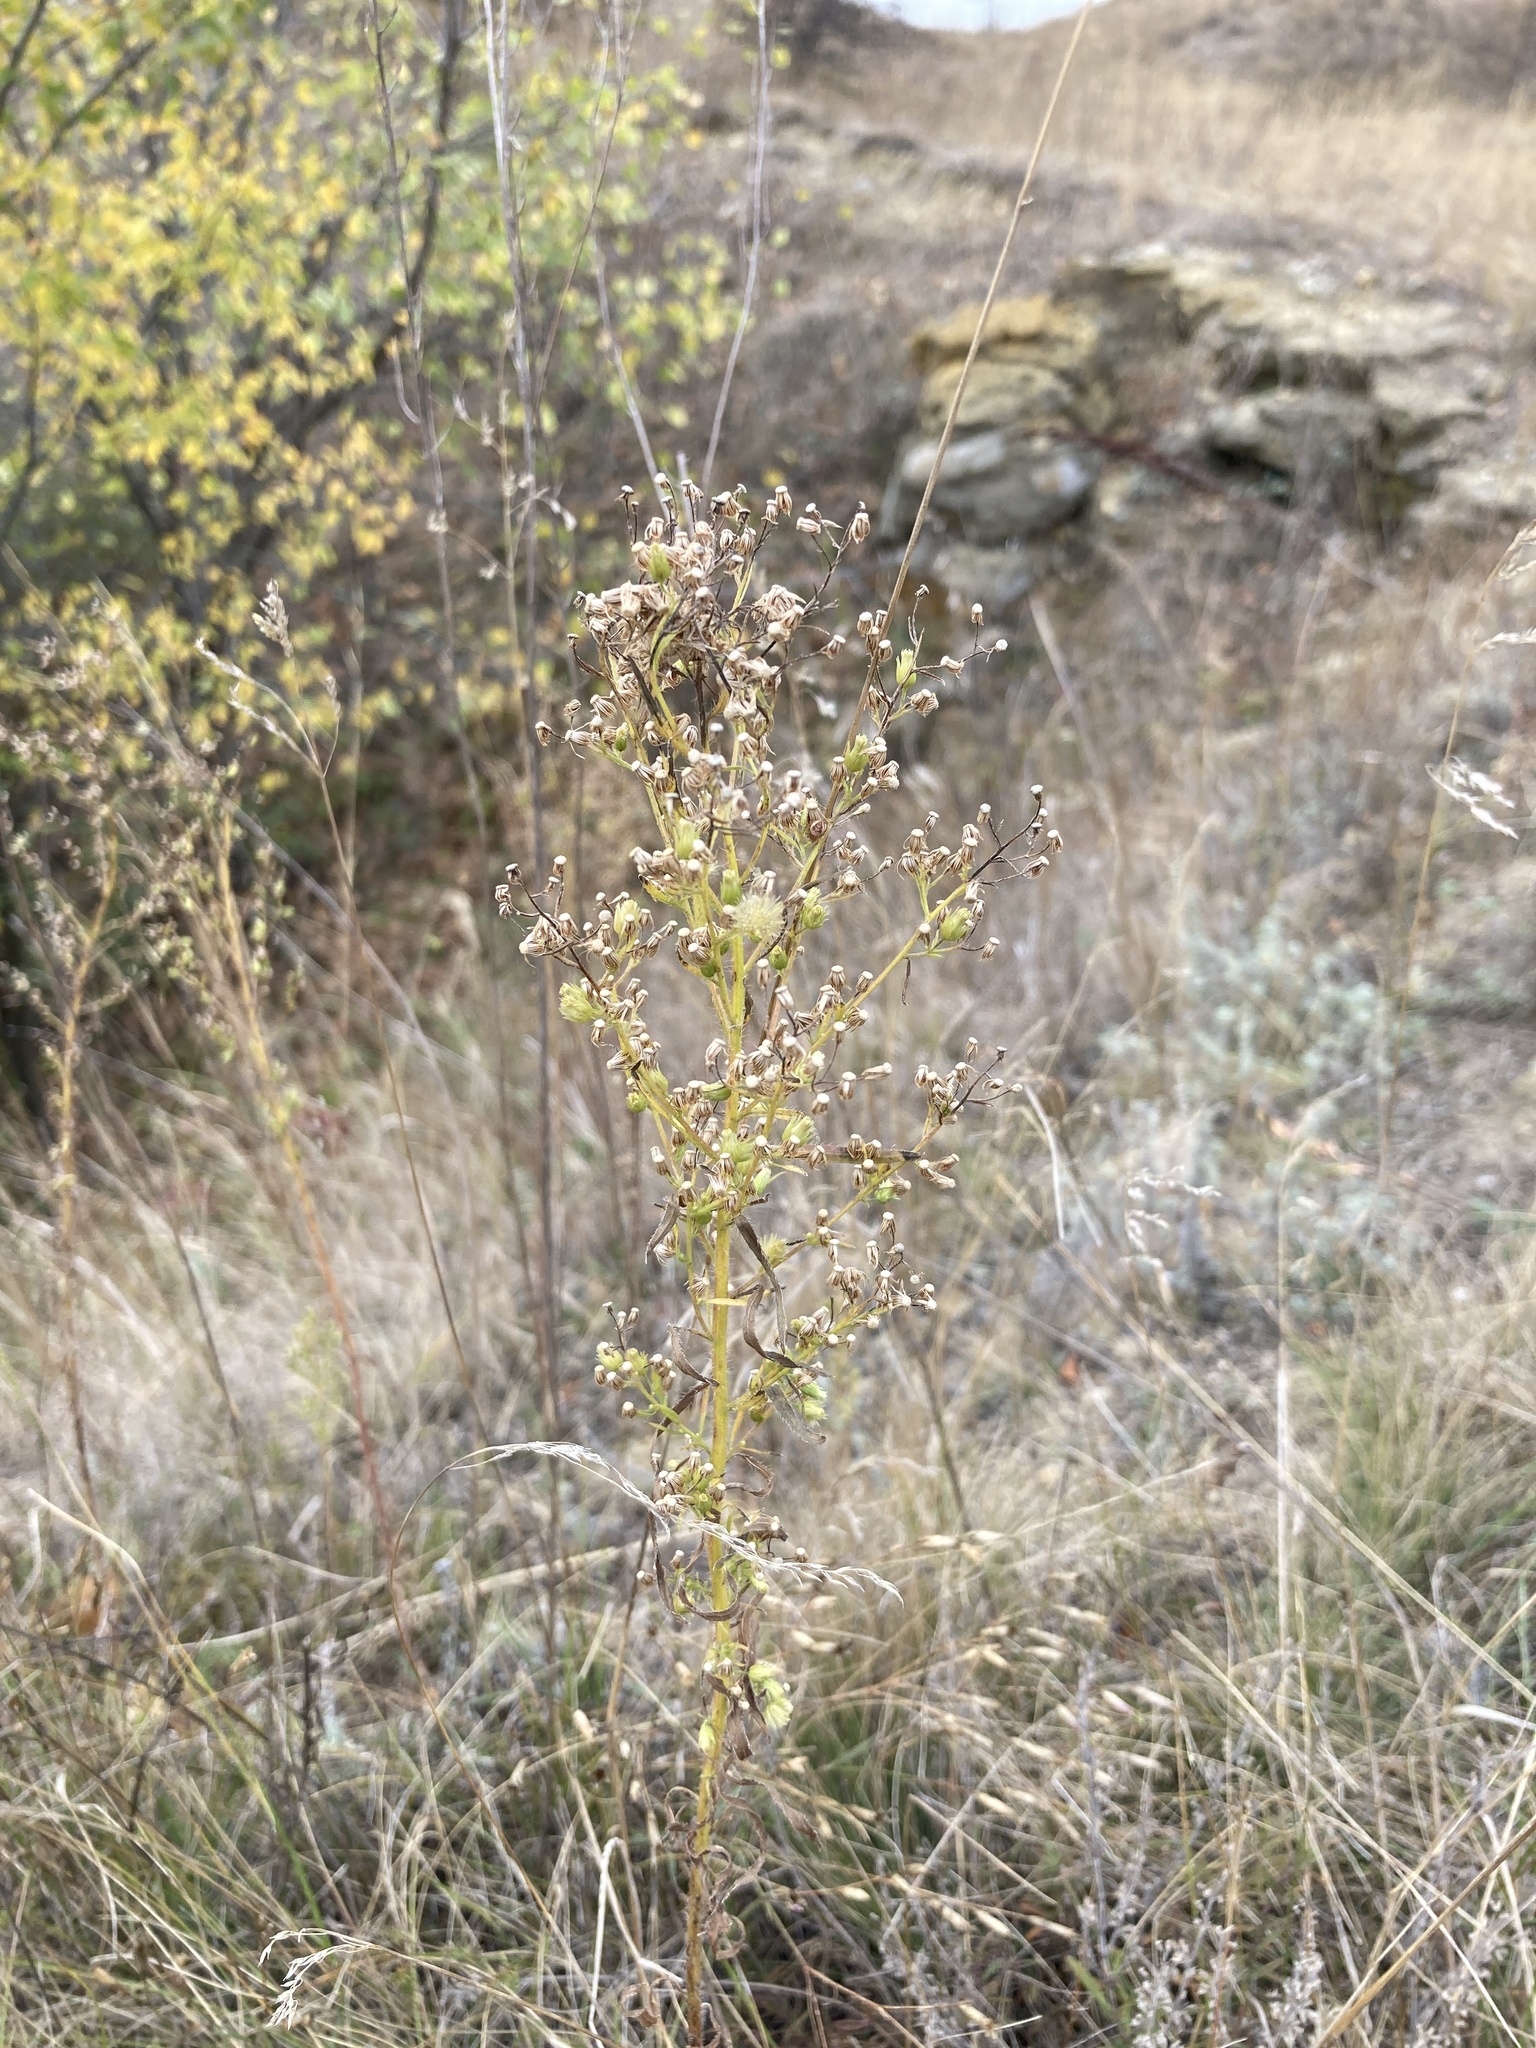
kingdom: Plantae
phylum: Tracheophyta
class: Magnoliopsida
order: Asterales
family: Asteraceae
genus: Erigeron
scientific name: Erigeron canadensis
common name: Canadian fleabane
